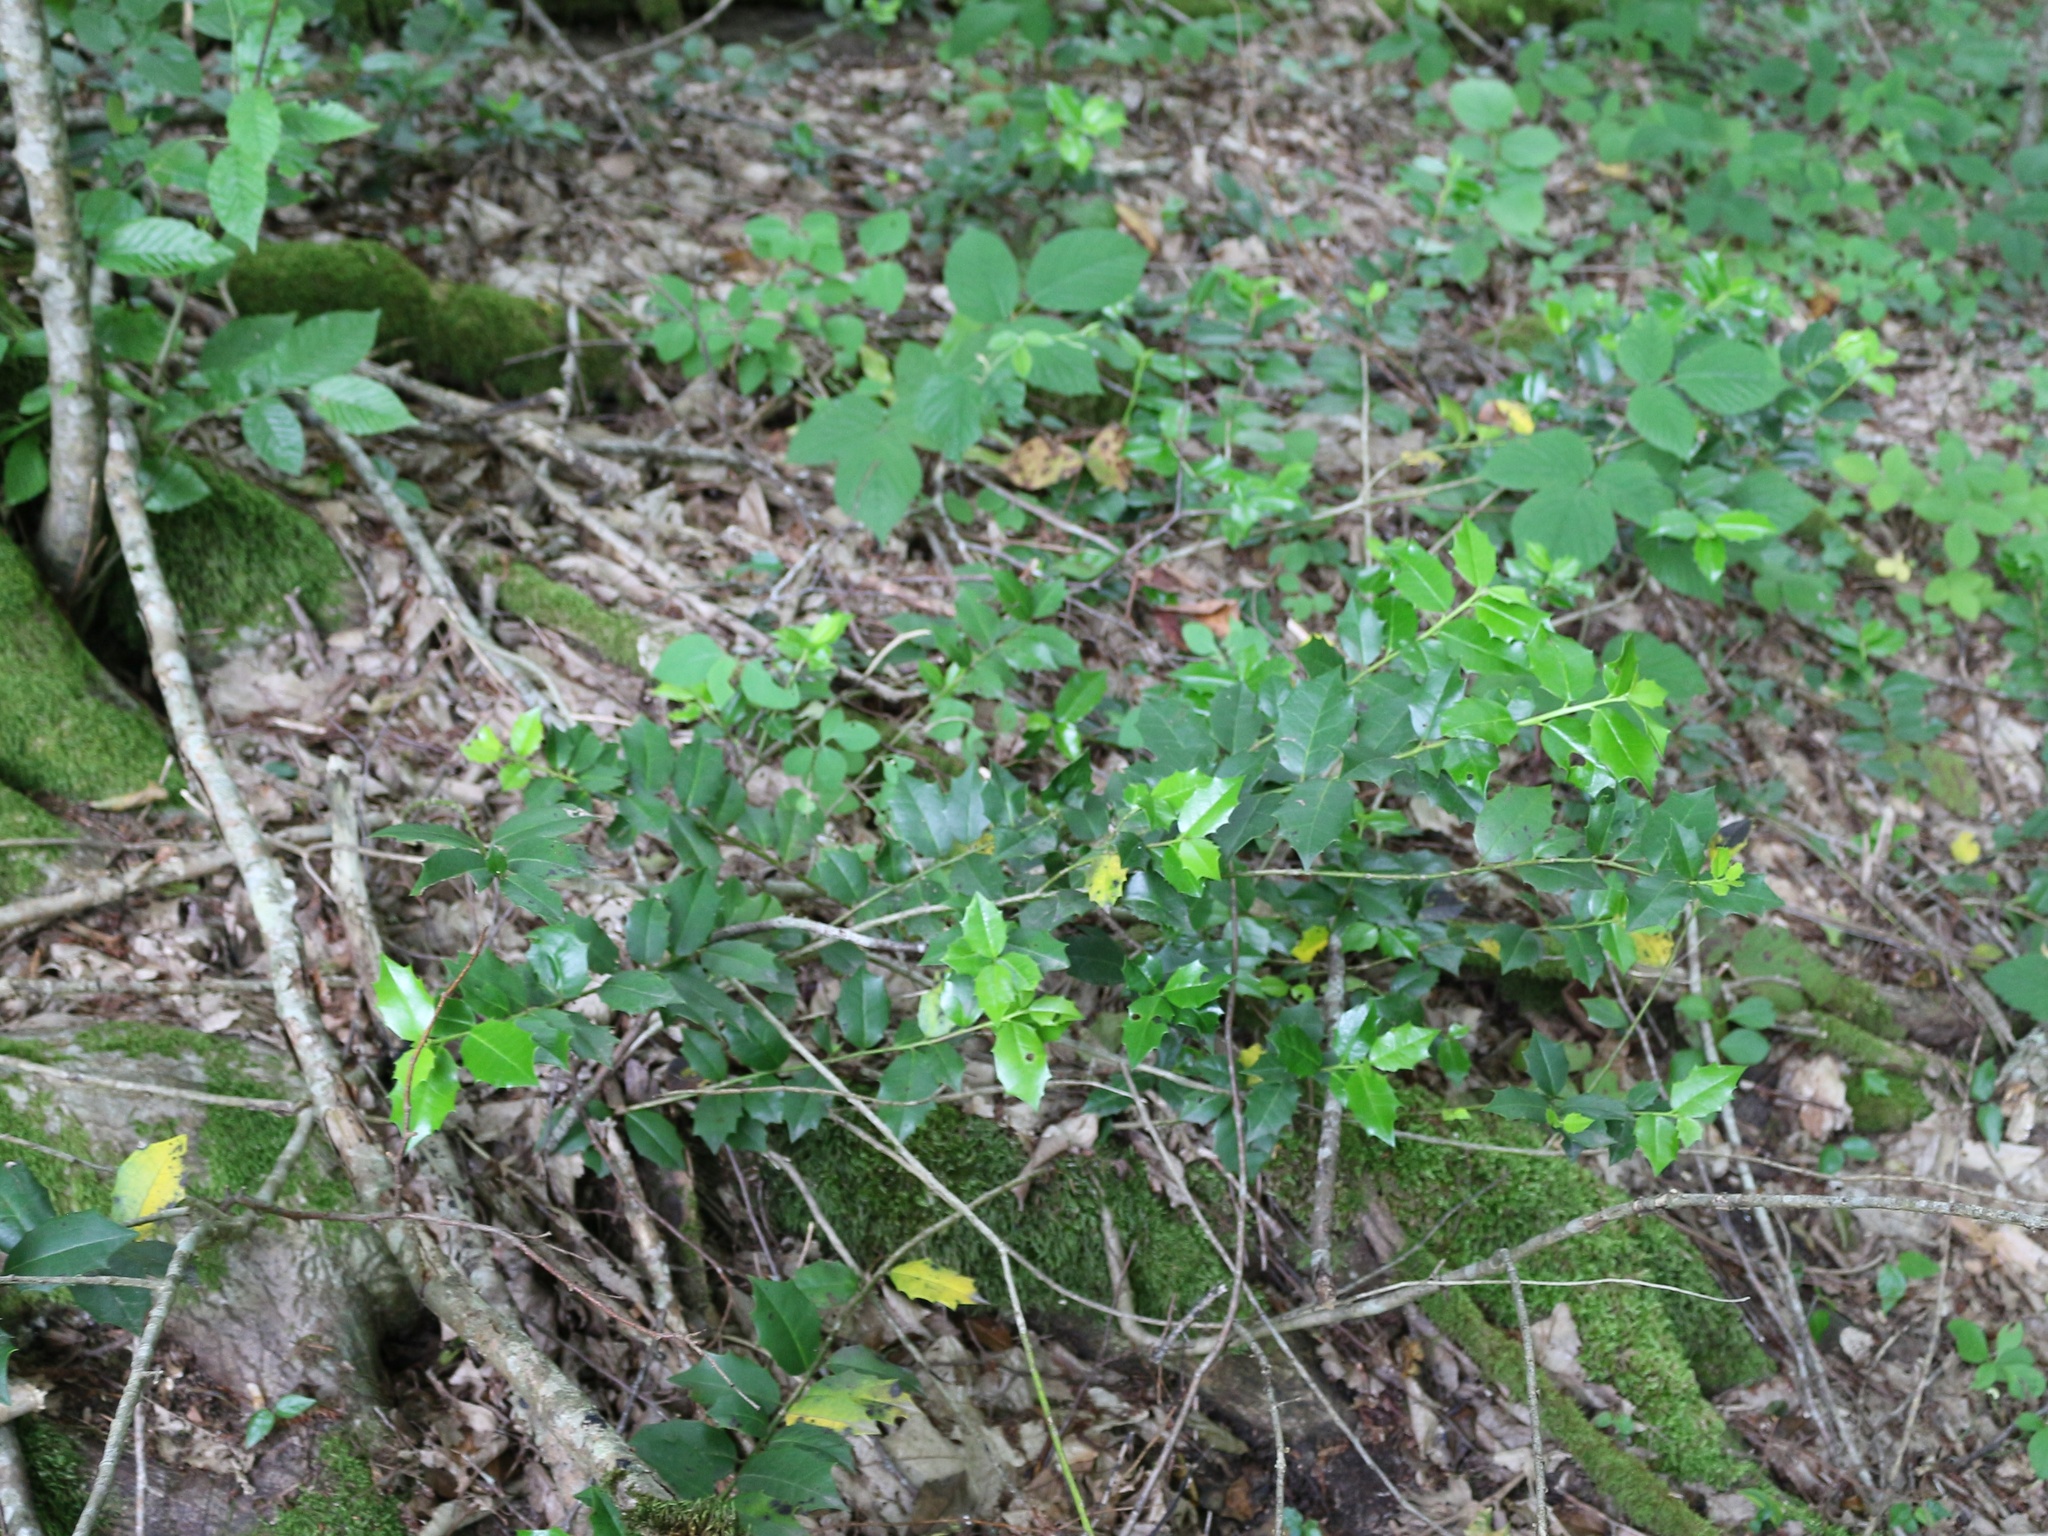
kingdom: Plantae
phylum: Tracheophyta
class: Magnoliopsida
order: Aquifoliales
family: Aquifoliaceae
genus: Ilex
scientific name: Ilex colchica
